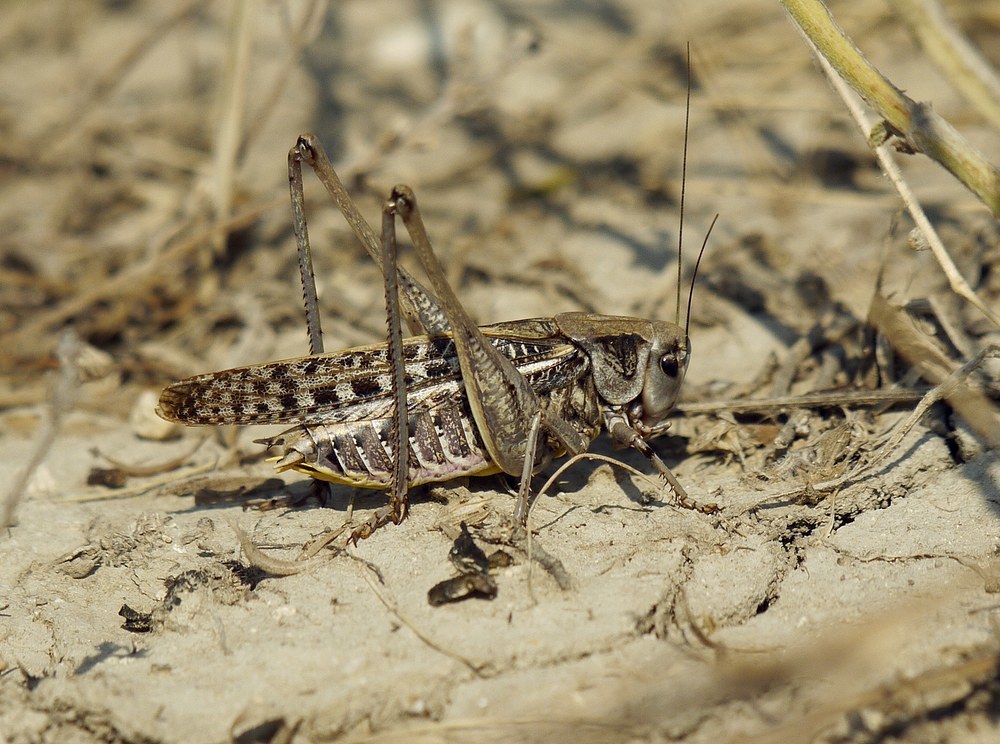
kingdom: Animalia
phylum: Arthropoda
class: Insecta
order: Orthoptera
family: Tettigoniidae
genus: Decticus
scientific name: Decticus verrucivorus
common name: Wart-biter
